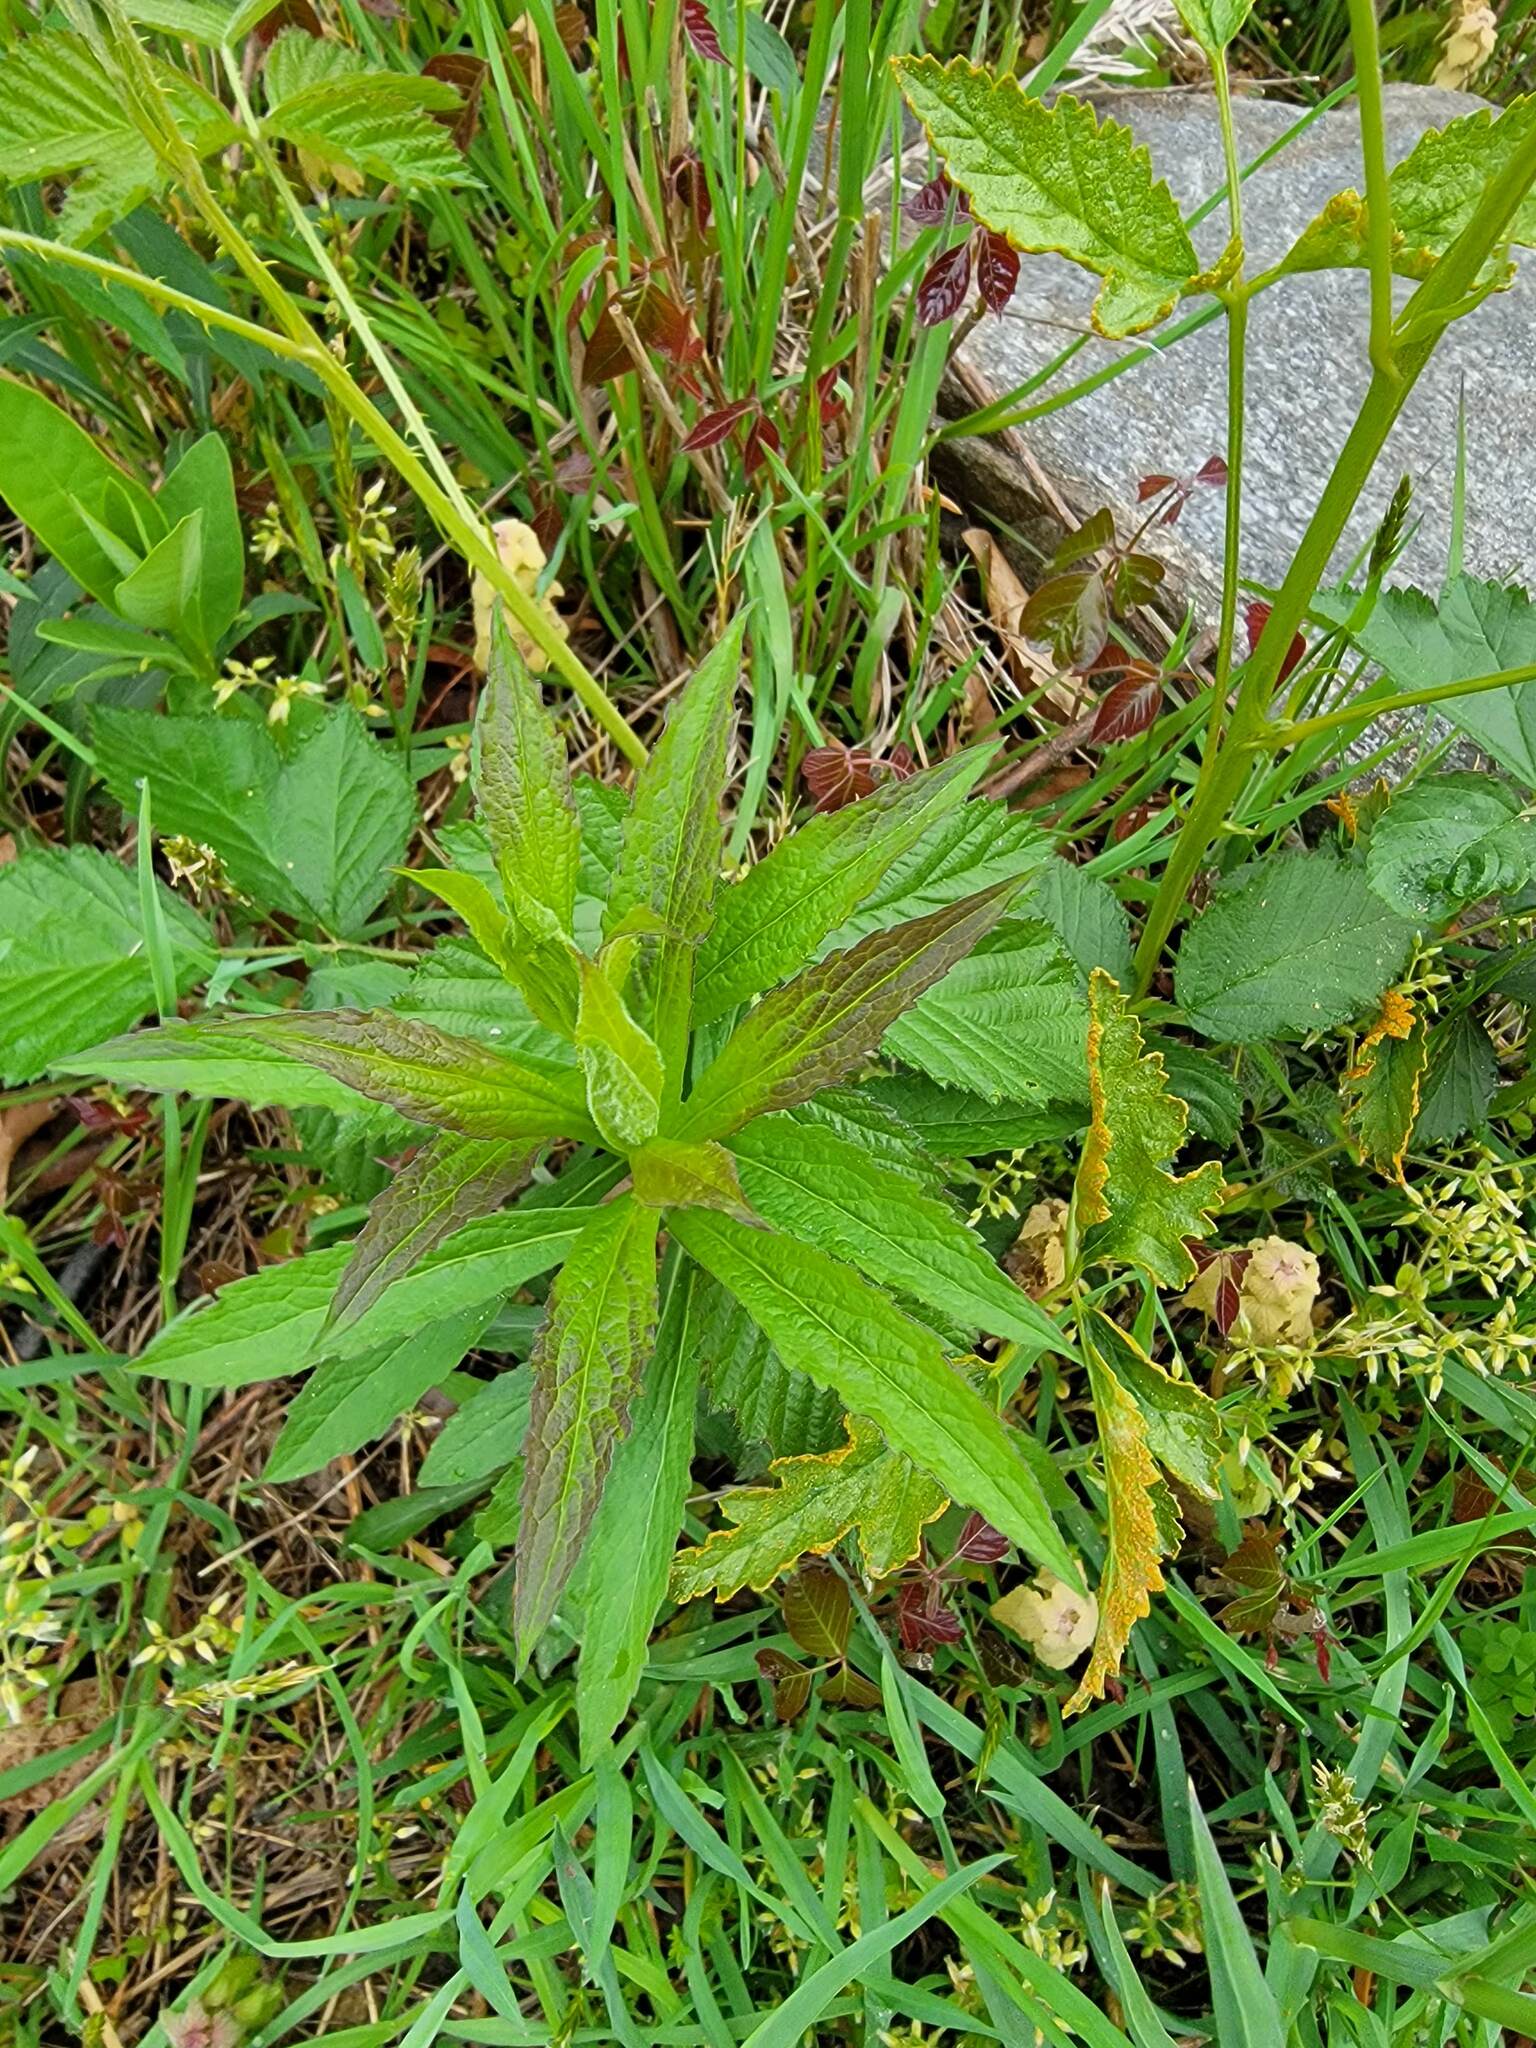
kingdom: Plantae
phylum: Tracheophyta
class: Magnoliopsida
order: Asterales
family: Asteraceae
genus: Solidago
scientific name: Solidago rugosa
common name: Rough-stemmed goldenrod
